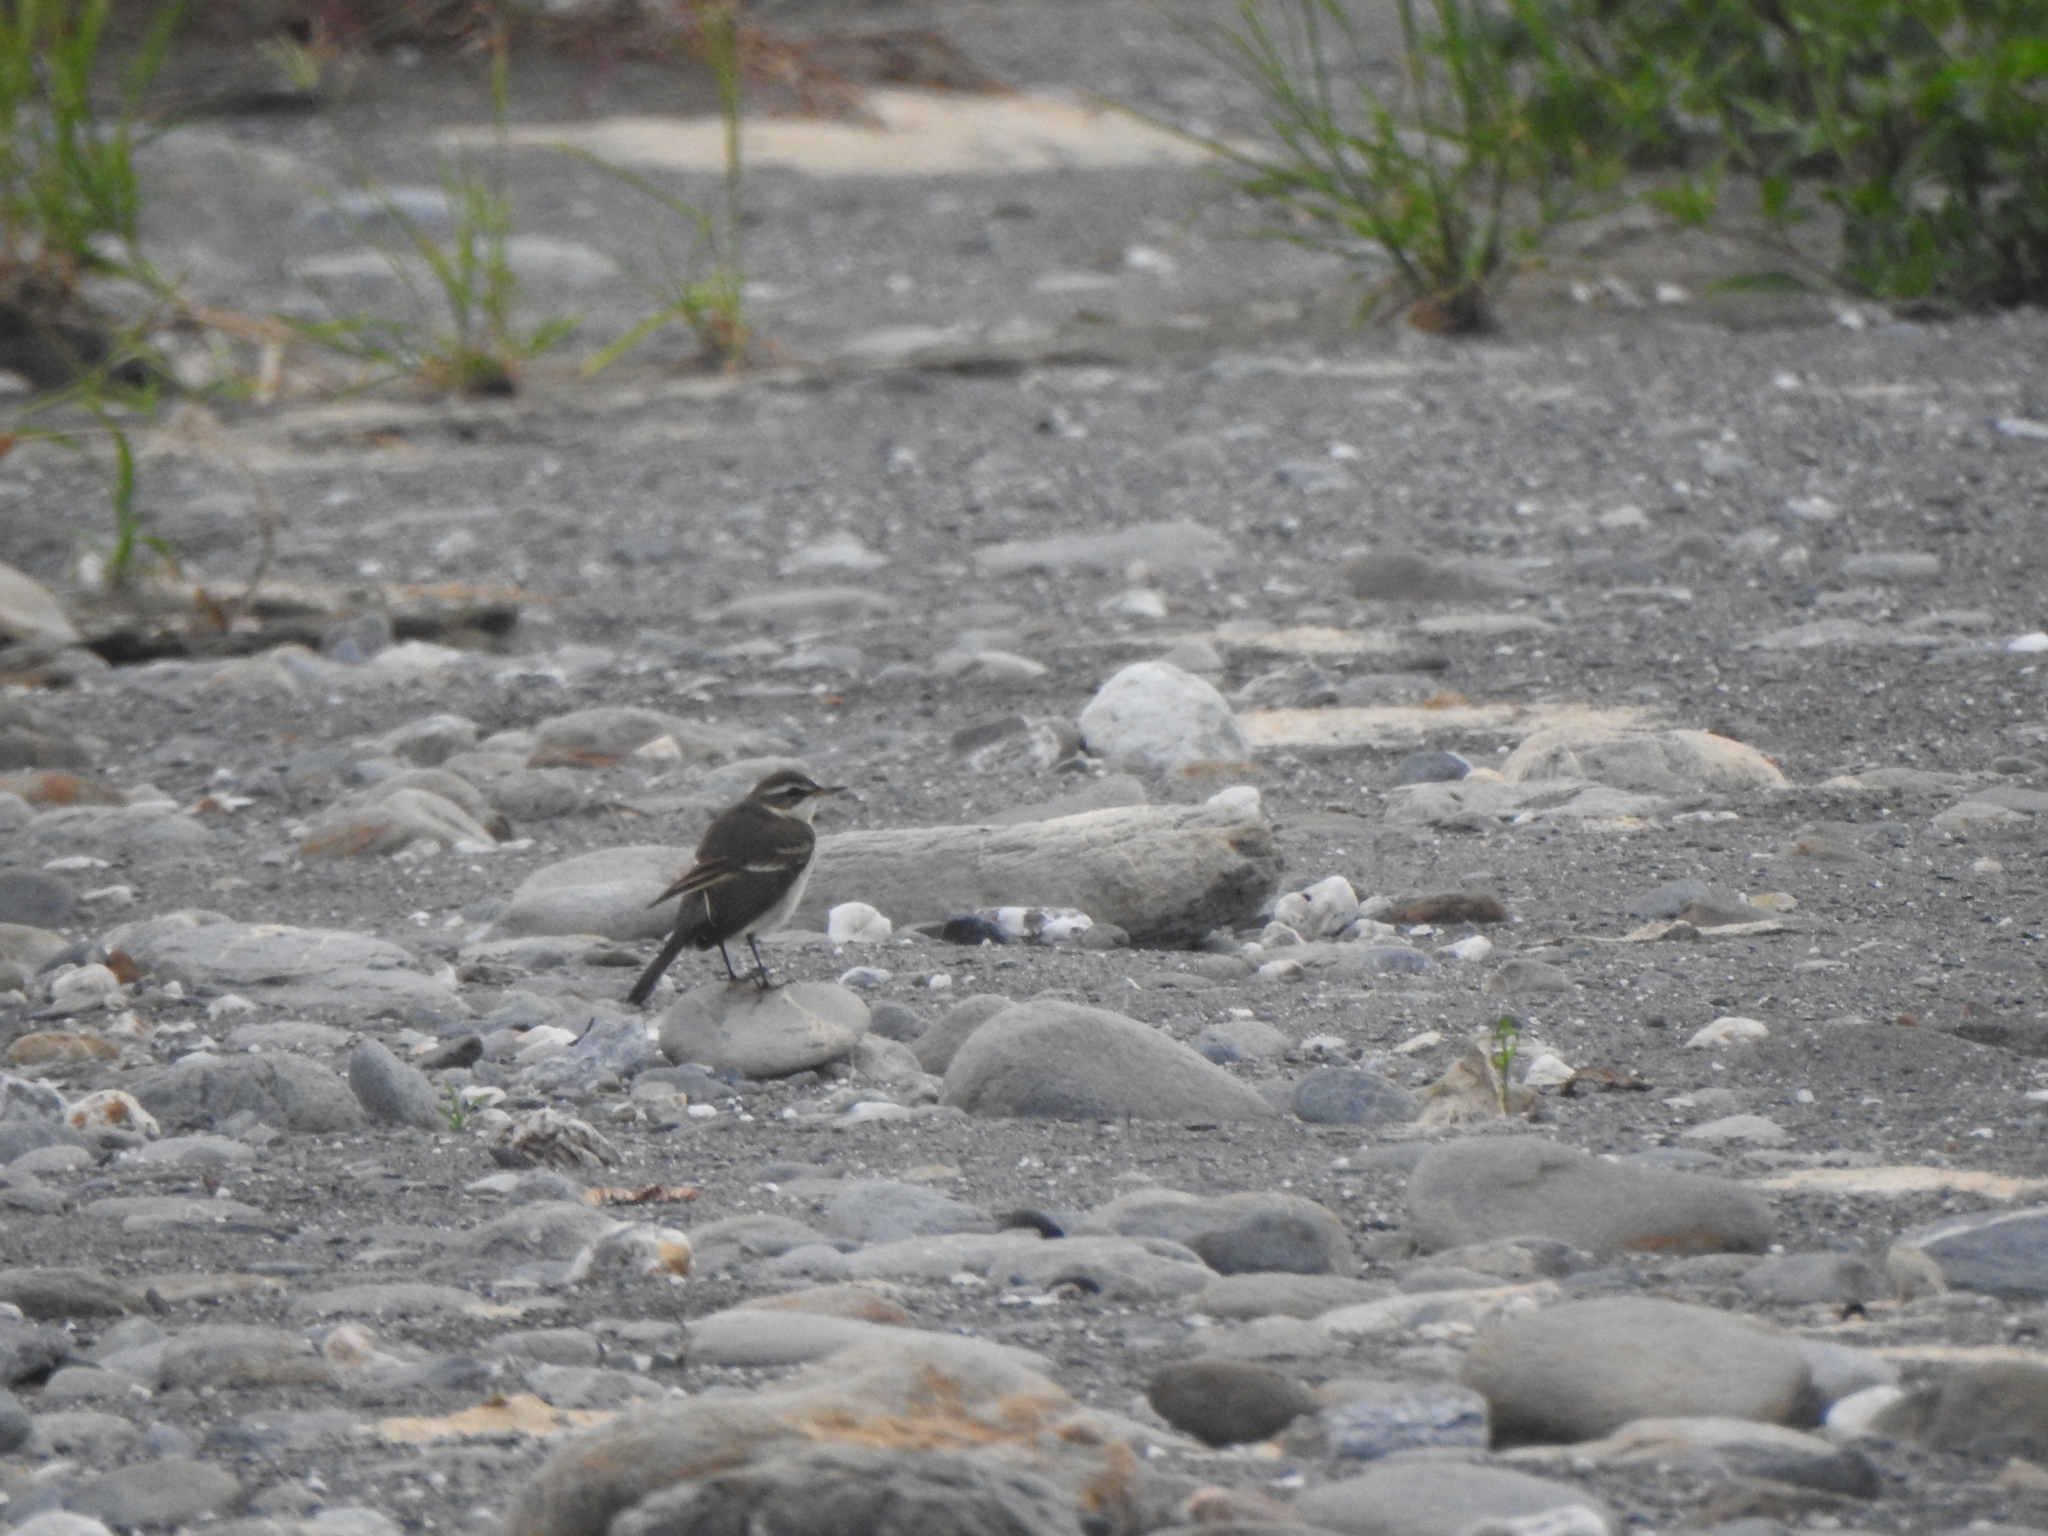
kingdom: Animalia
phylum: Chordata
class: Aves
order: Passeriformes
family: Motacillidae
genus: Motacilla
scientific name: Motacilla tschutschensis
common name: Eastern yellow wagtail
